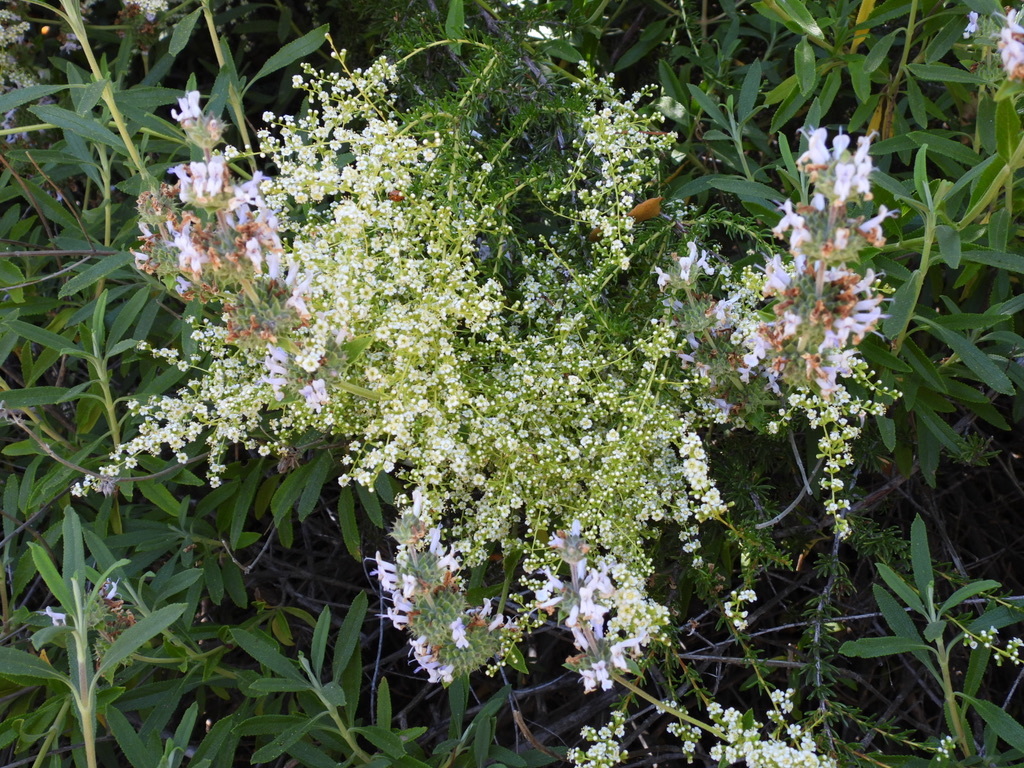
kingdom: Plantae
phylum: Tracheophyta
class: Magnoliopsida
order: Rosales
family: Rosaceae
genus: Adenostoma
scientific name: Adenostoma fasciculatum
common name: Chamise
